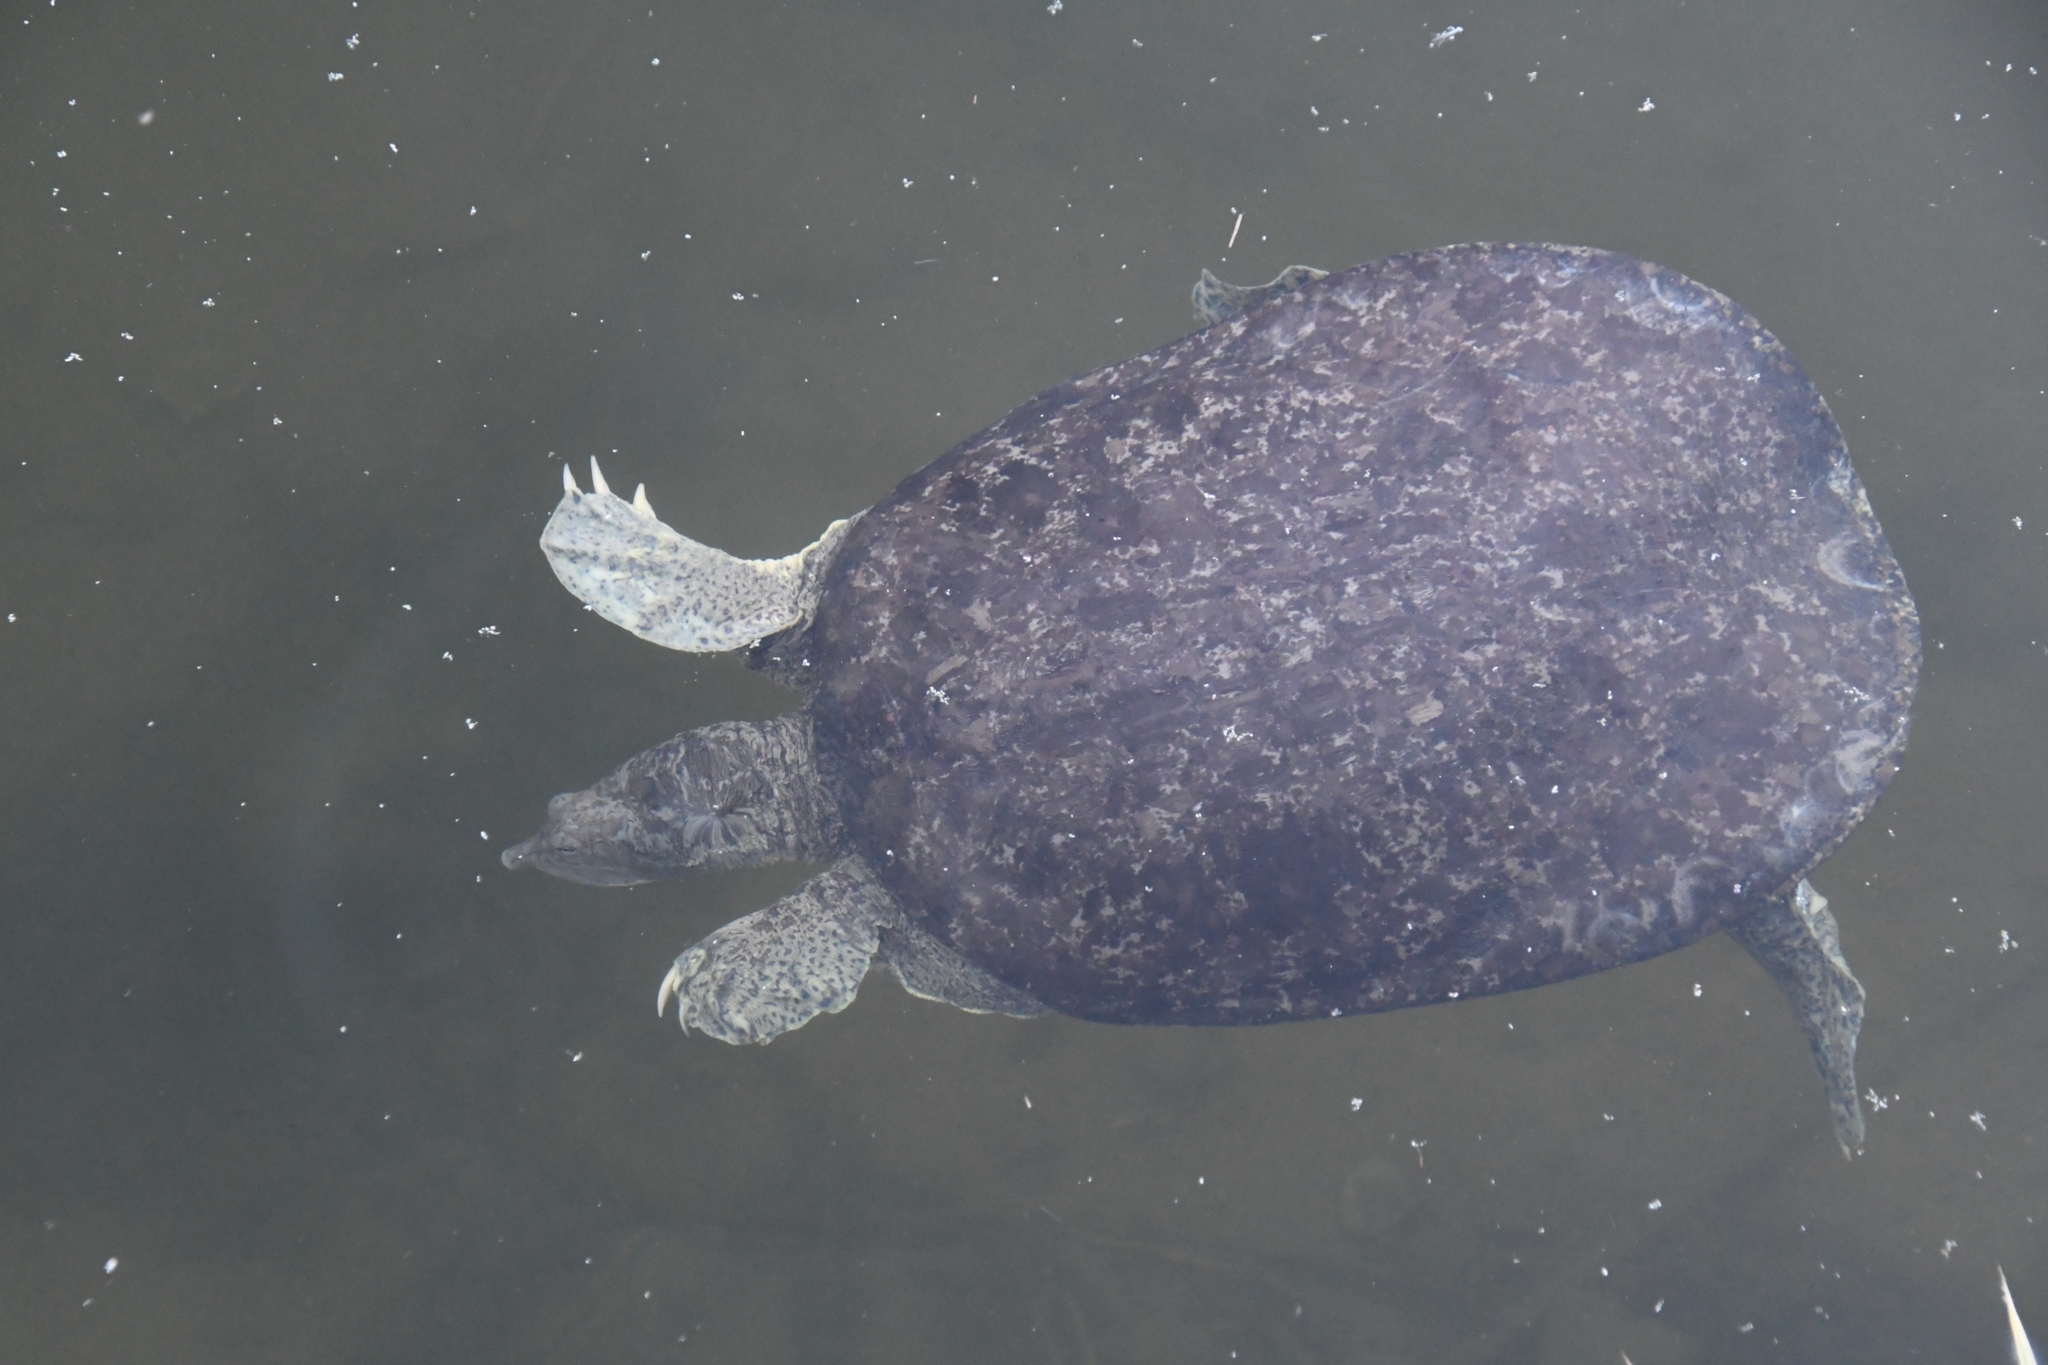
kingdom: Animalia
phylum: Chordata
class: Testudines
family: Trionychidae
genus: Apalone
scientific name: Apalone spinifera
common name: Spiny softshell turtle
